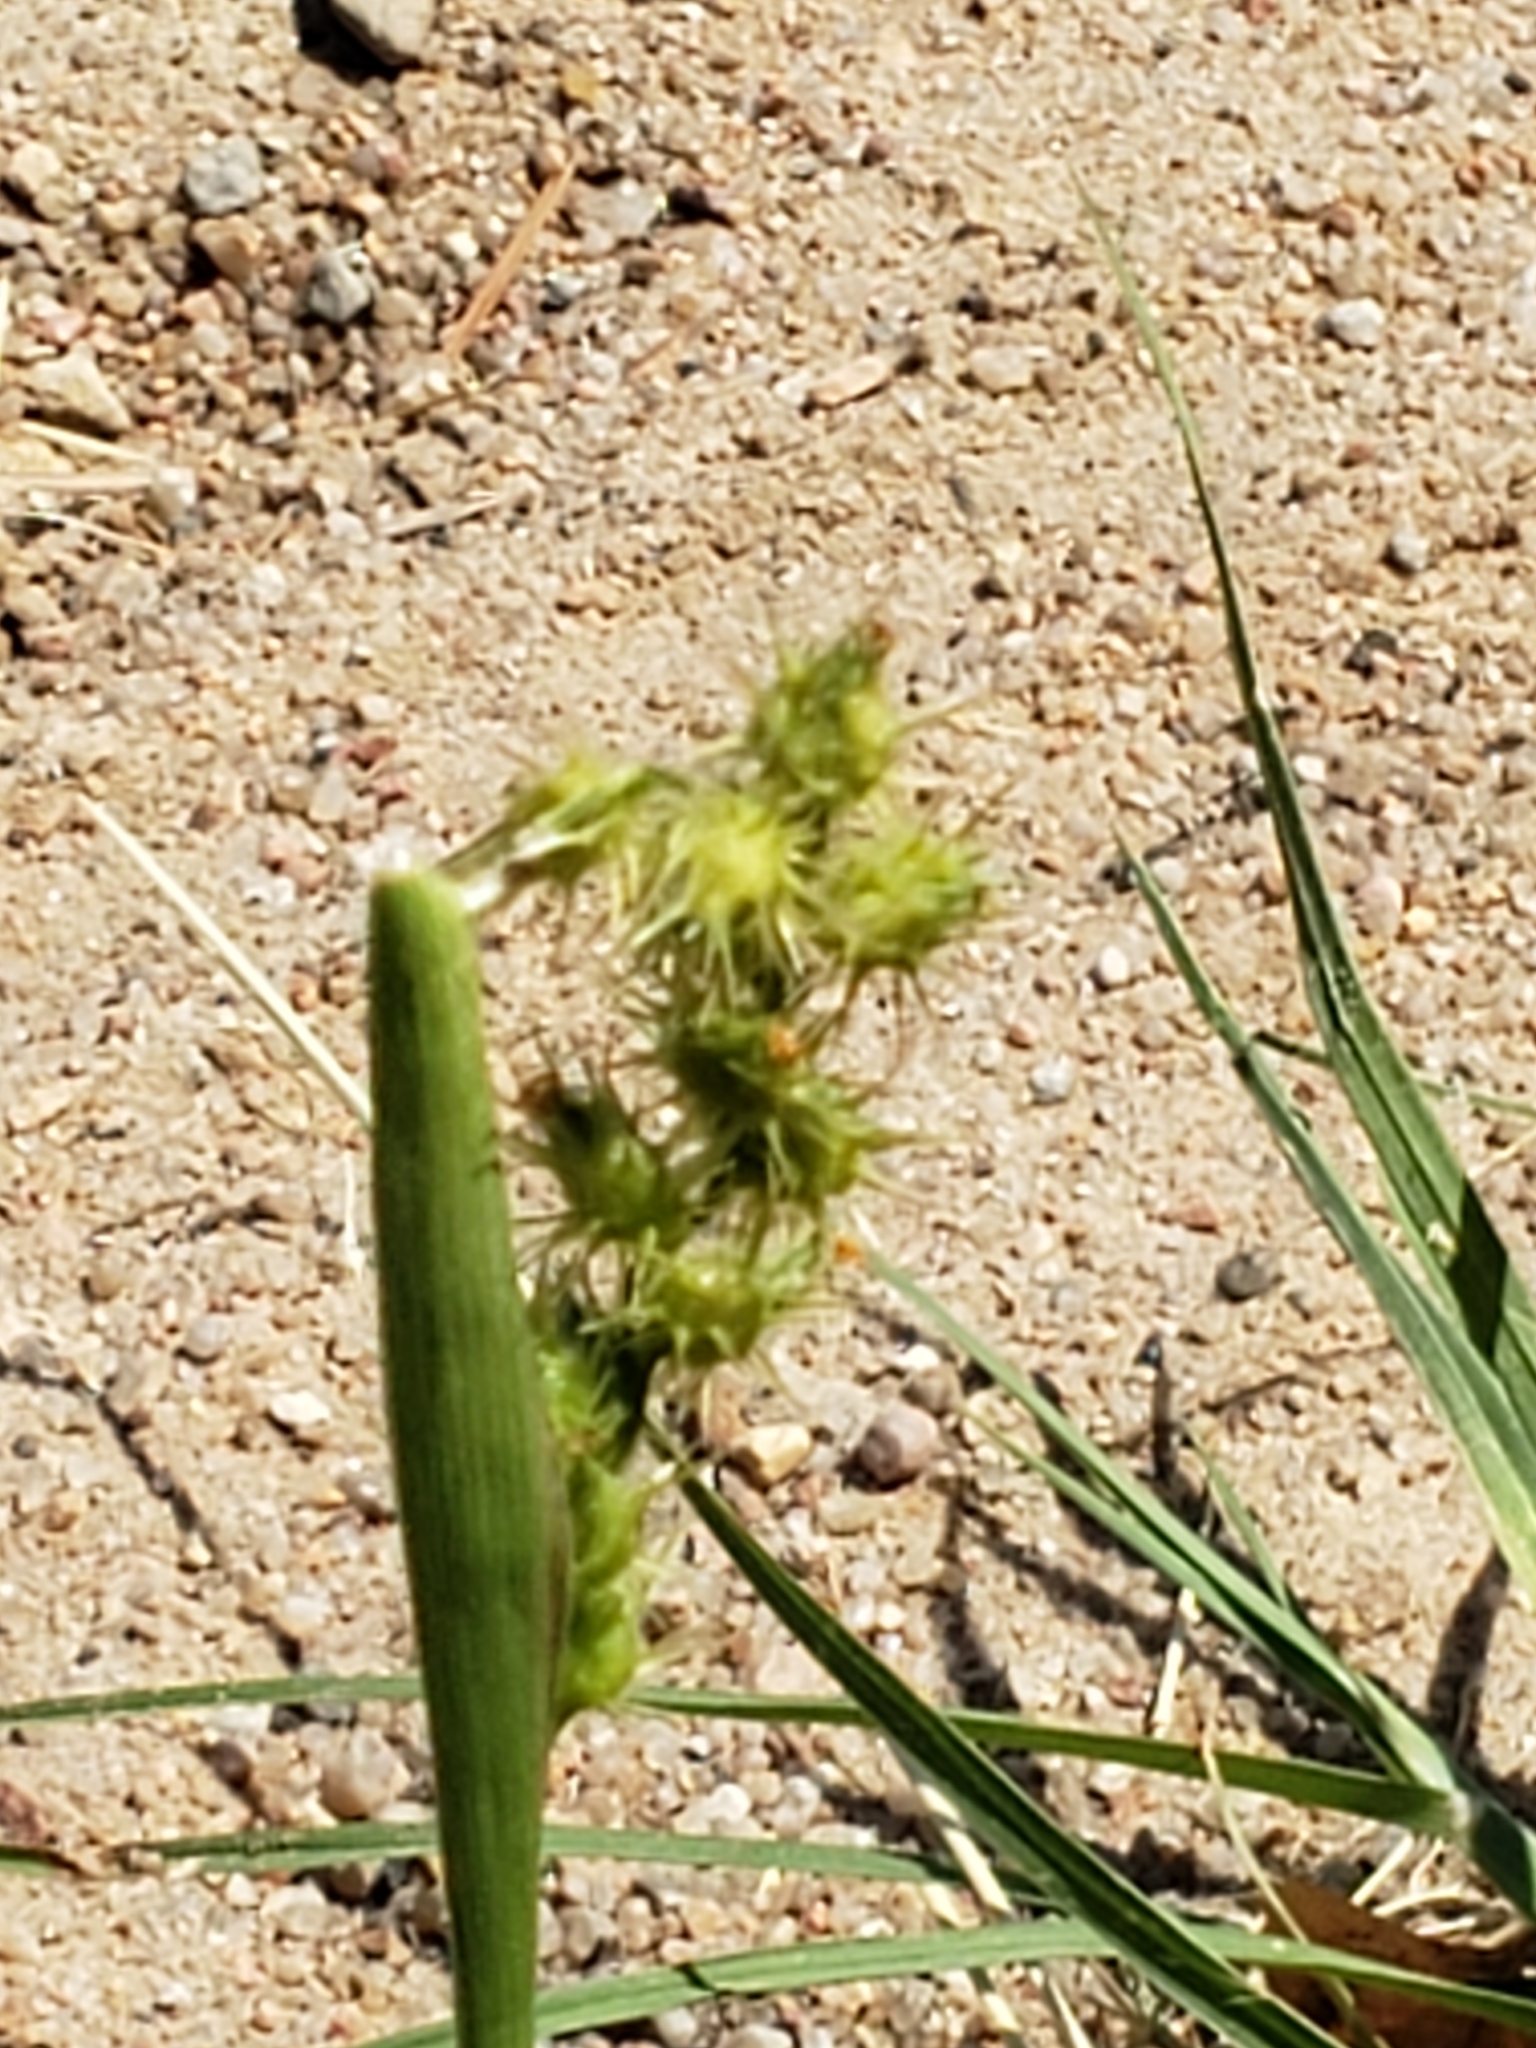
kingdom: Plantae
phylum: Tracheophyta
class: Liliopsida
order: Poales
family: Poaceae
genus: Cenchrus
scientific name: Cenchrus longispinus
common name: Mat sandbur
